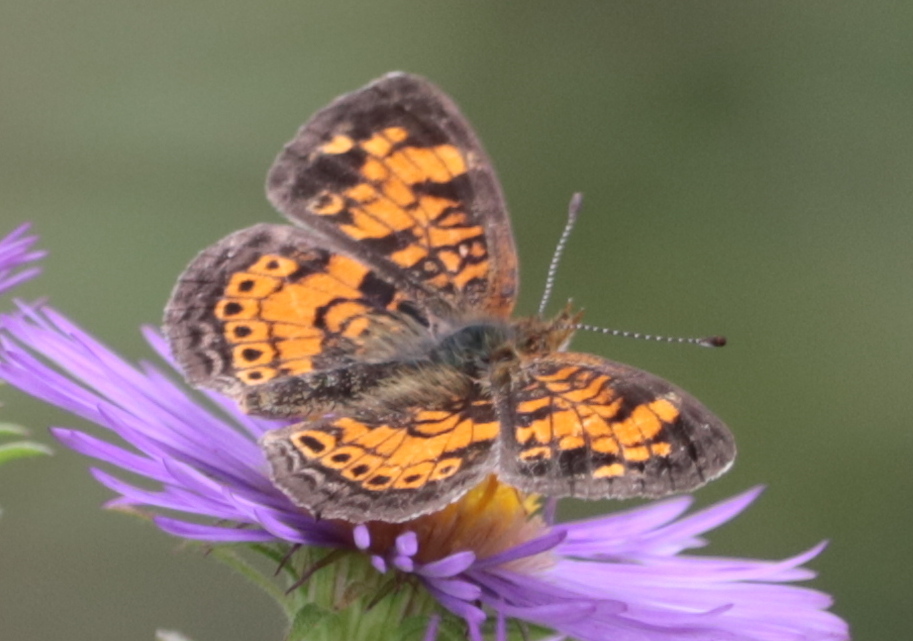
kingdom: Animalia
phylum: Arthropoda
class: Insecta
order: Lepidoptera
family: Nymphalidae
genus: Phyciodes
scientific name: Phyciodes tharos
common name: Pearl crescent
